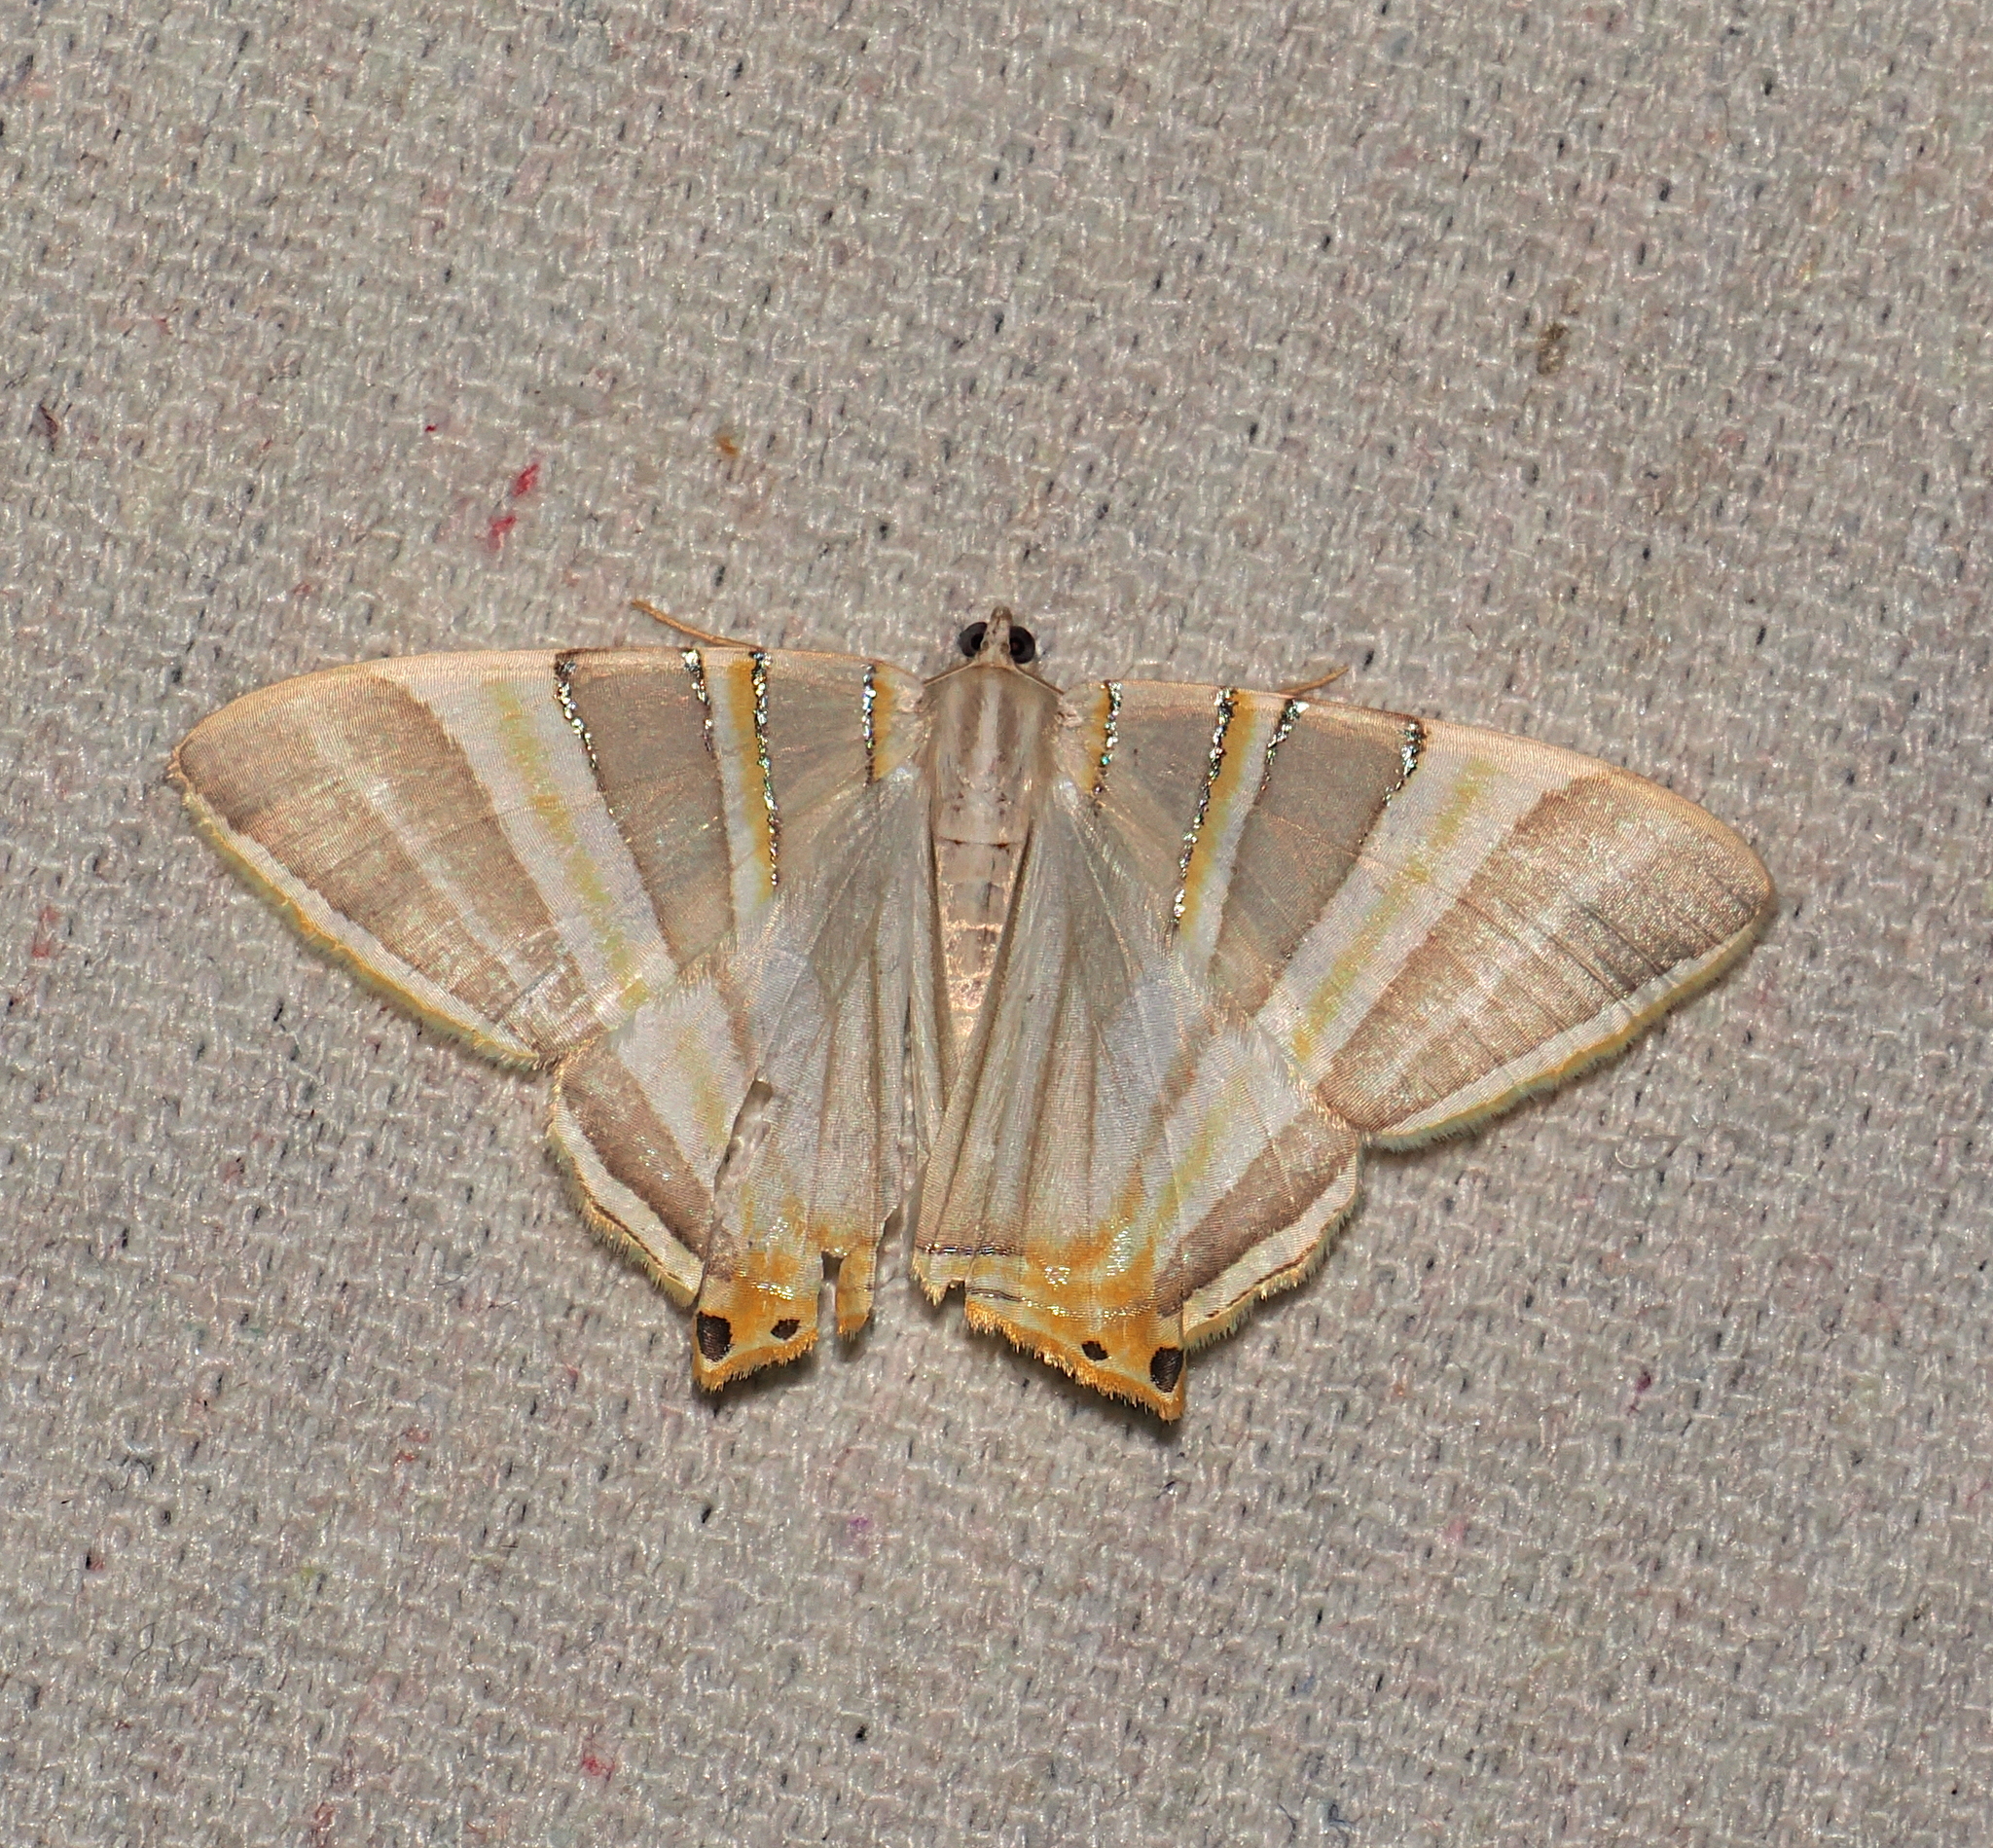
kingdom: Animalia
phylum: Arthropoda
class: Insecta
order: Lepidoptera
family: Geometridae
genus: Phrygionis
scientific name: Phrygionis platinata
